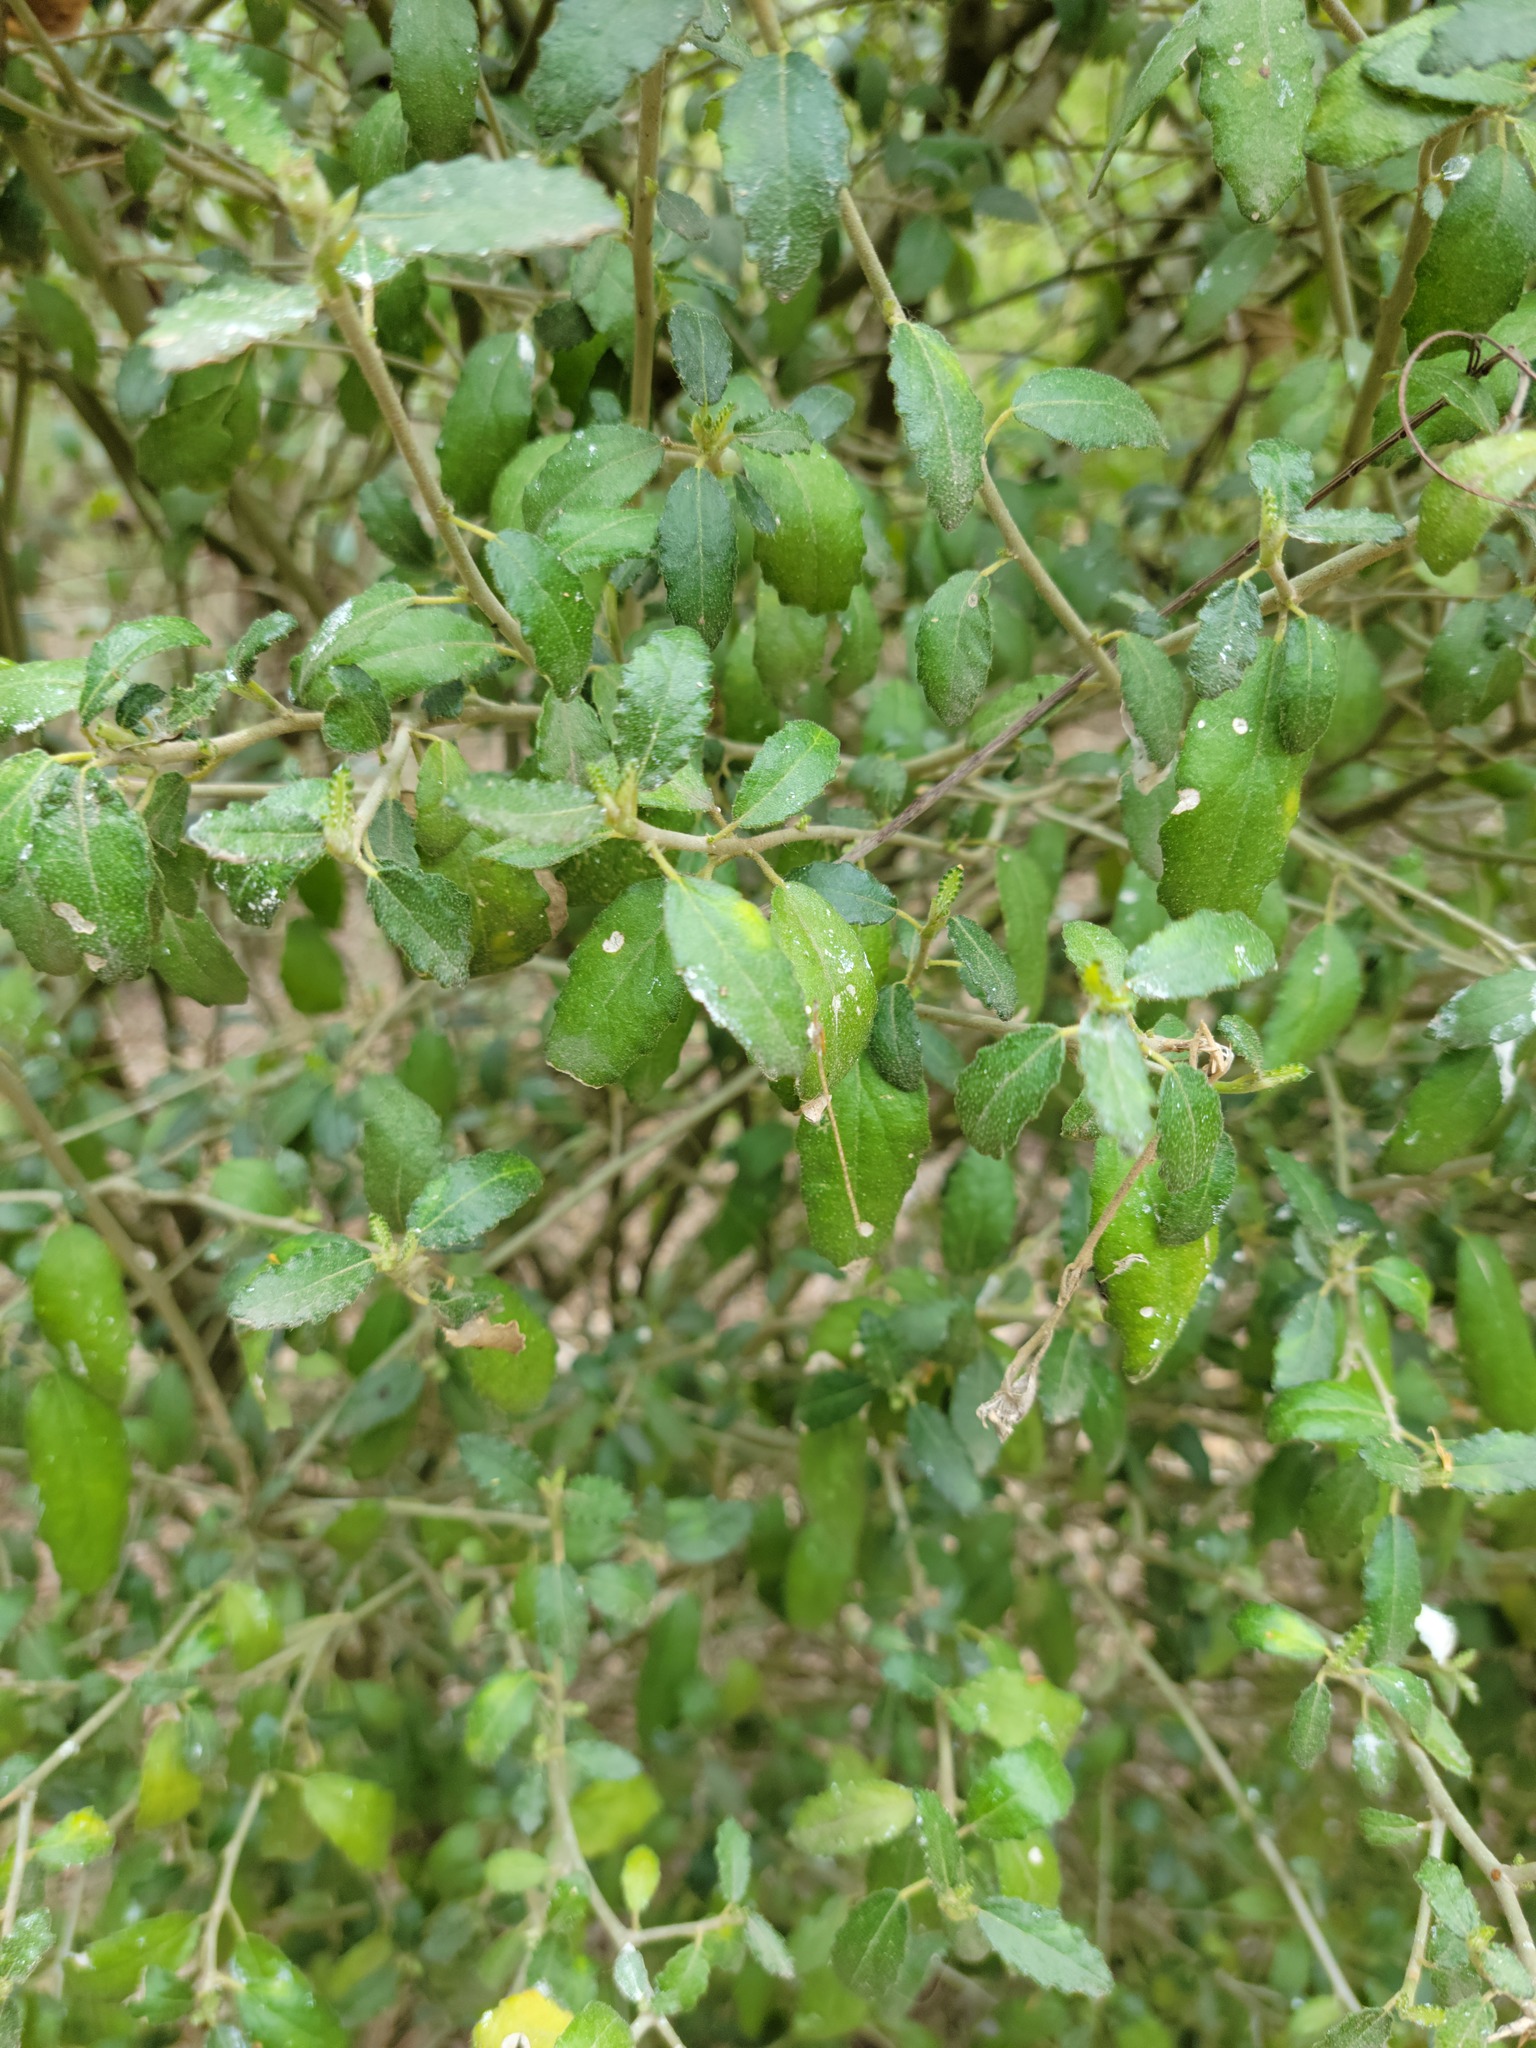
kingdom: Plantae
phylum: Tracheophyta
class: Magnoliopsida
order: Malpighiales
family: Euphorbiaceae
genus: Bernardia
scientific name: Bernardia myricifolia
